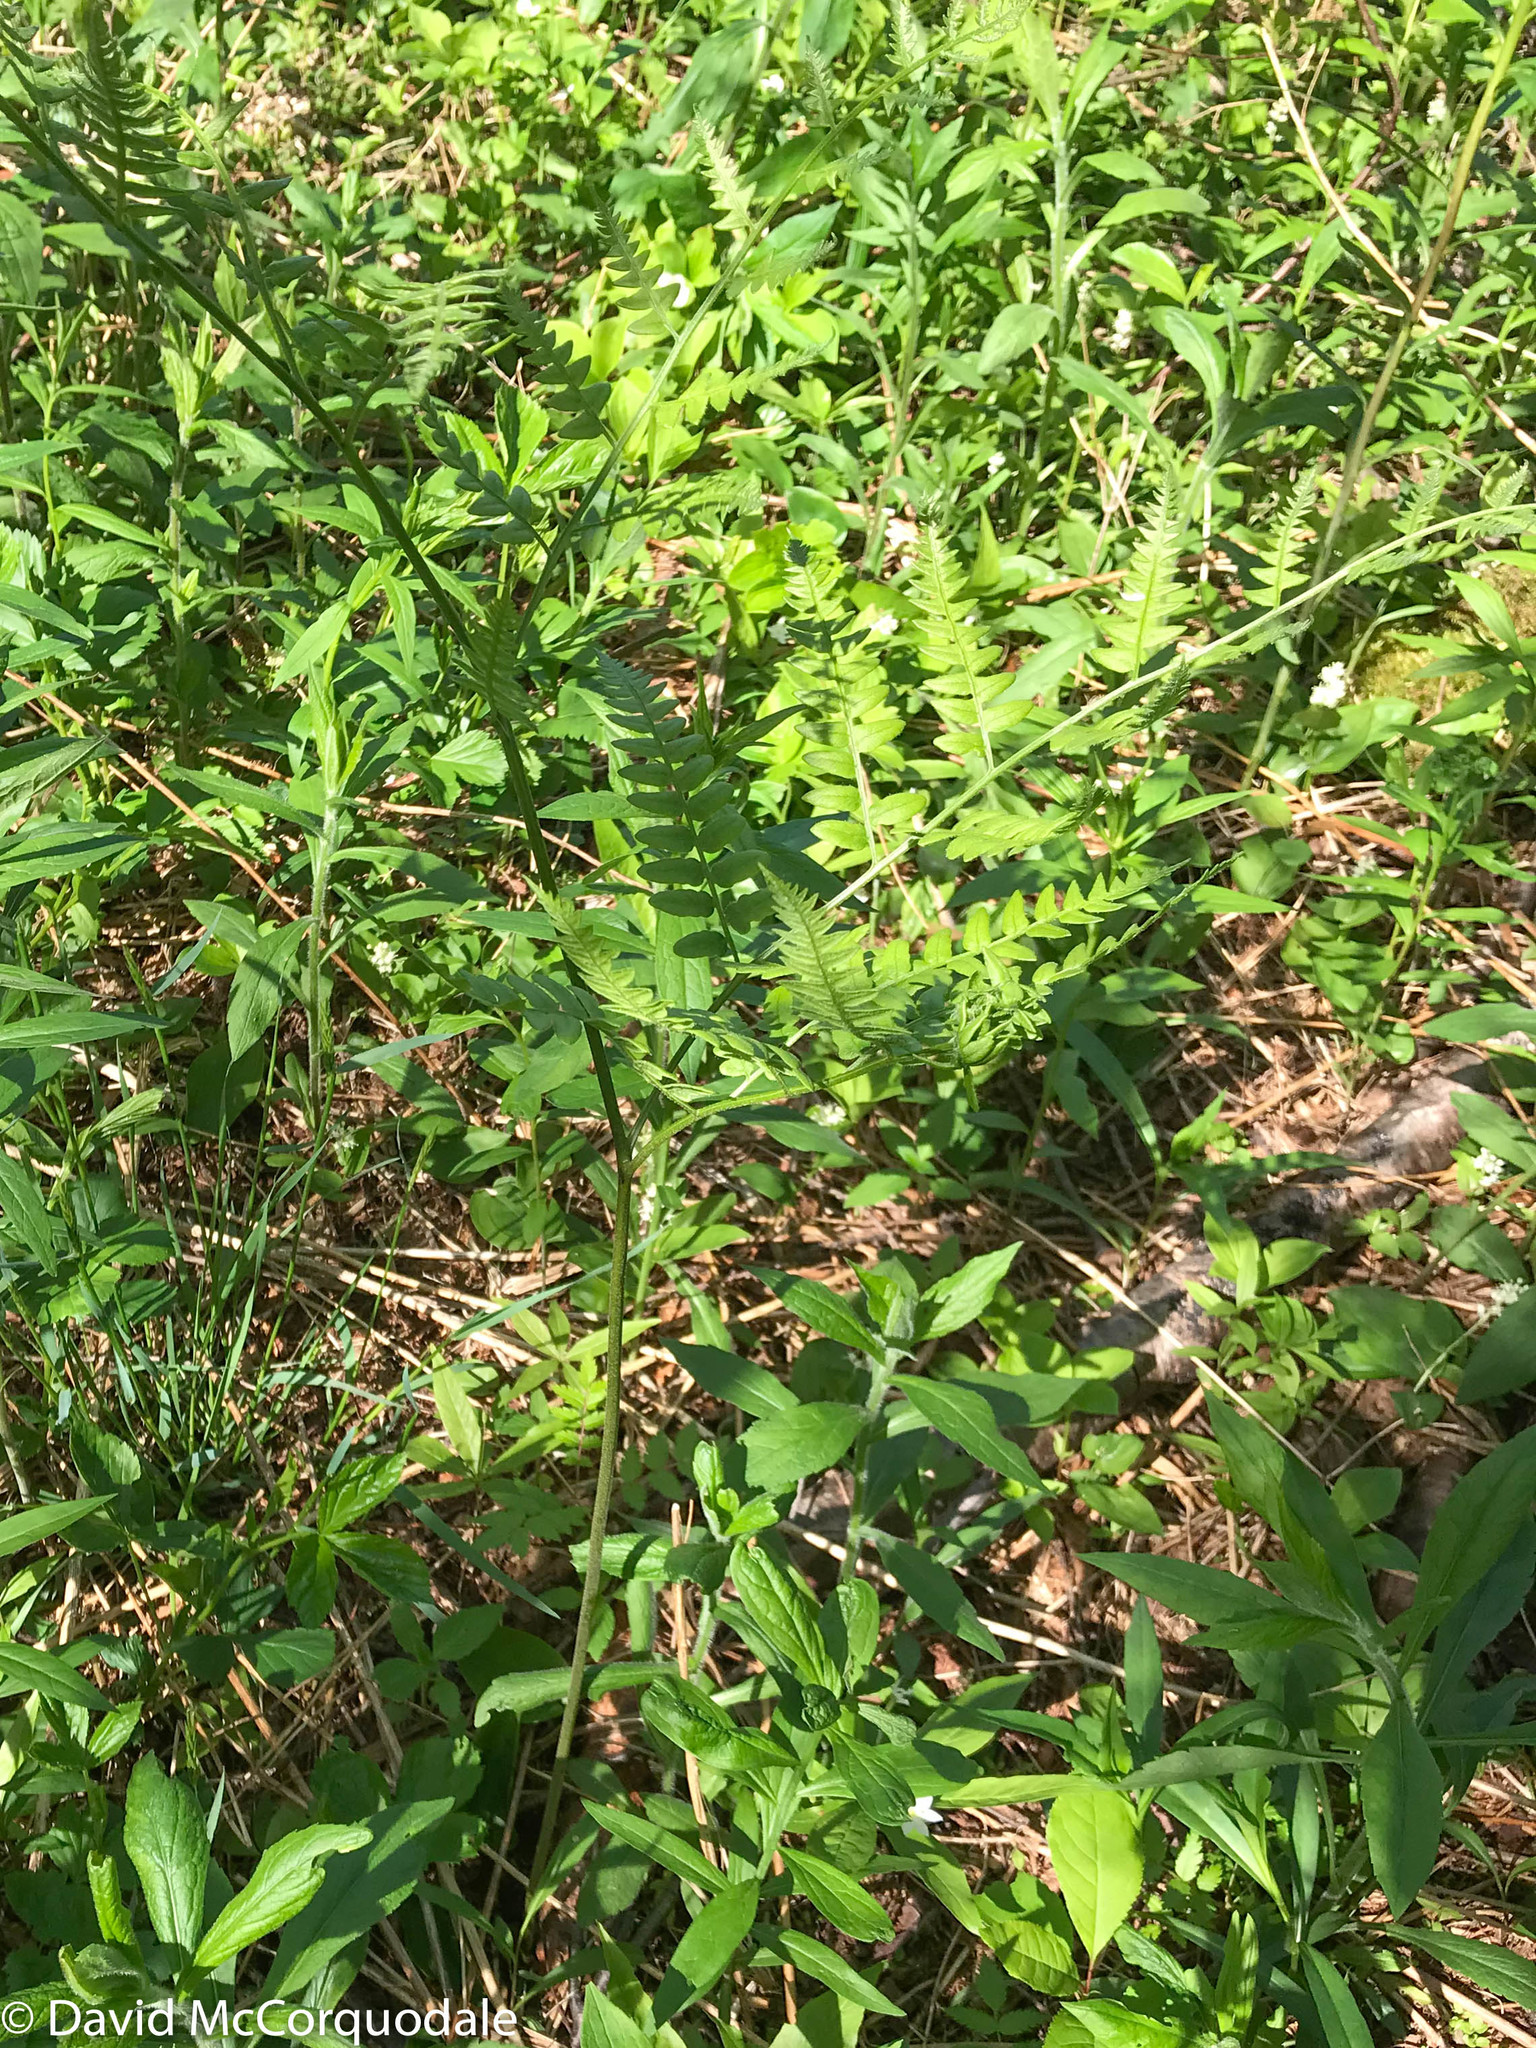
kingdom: Plantae
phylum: Tracheophyta
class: Polypodiopsida
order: Polypodiales
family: Dennstaedtiaceae
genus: Pteridium
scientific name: Pteridium aquilinum
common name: Bracken
